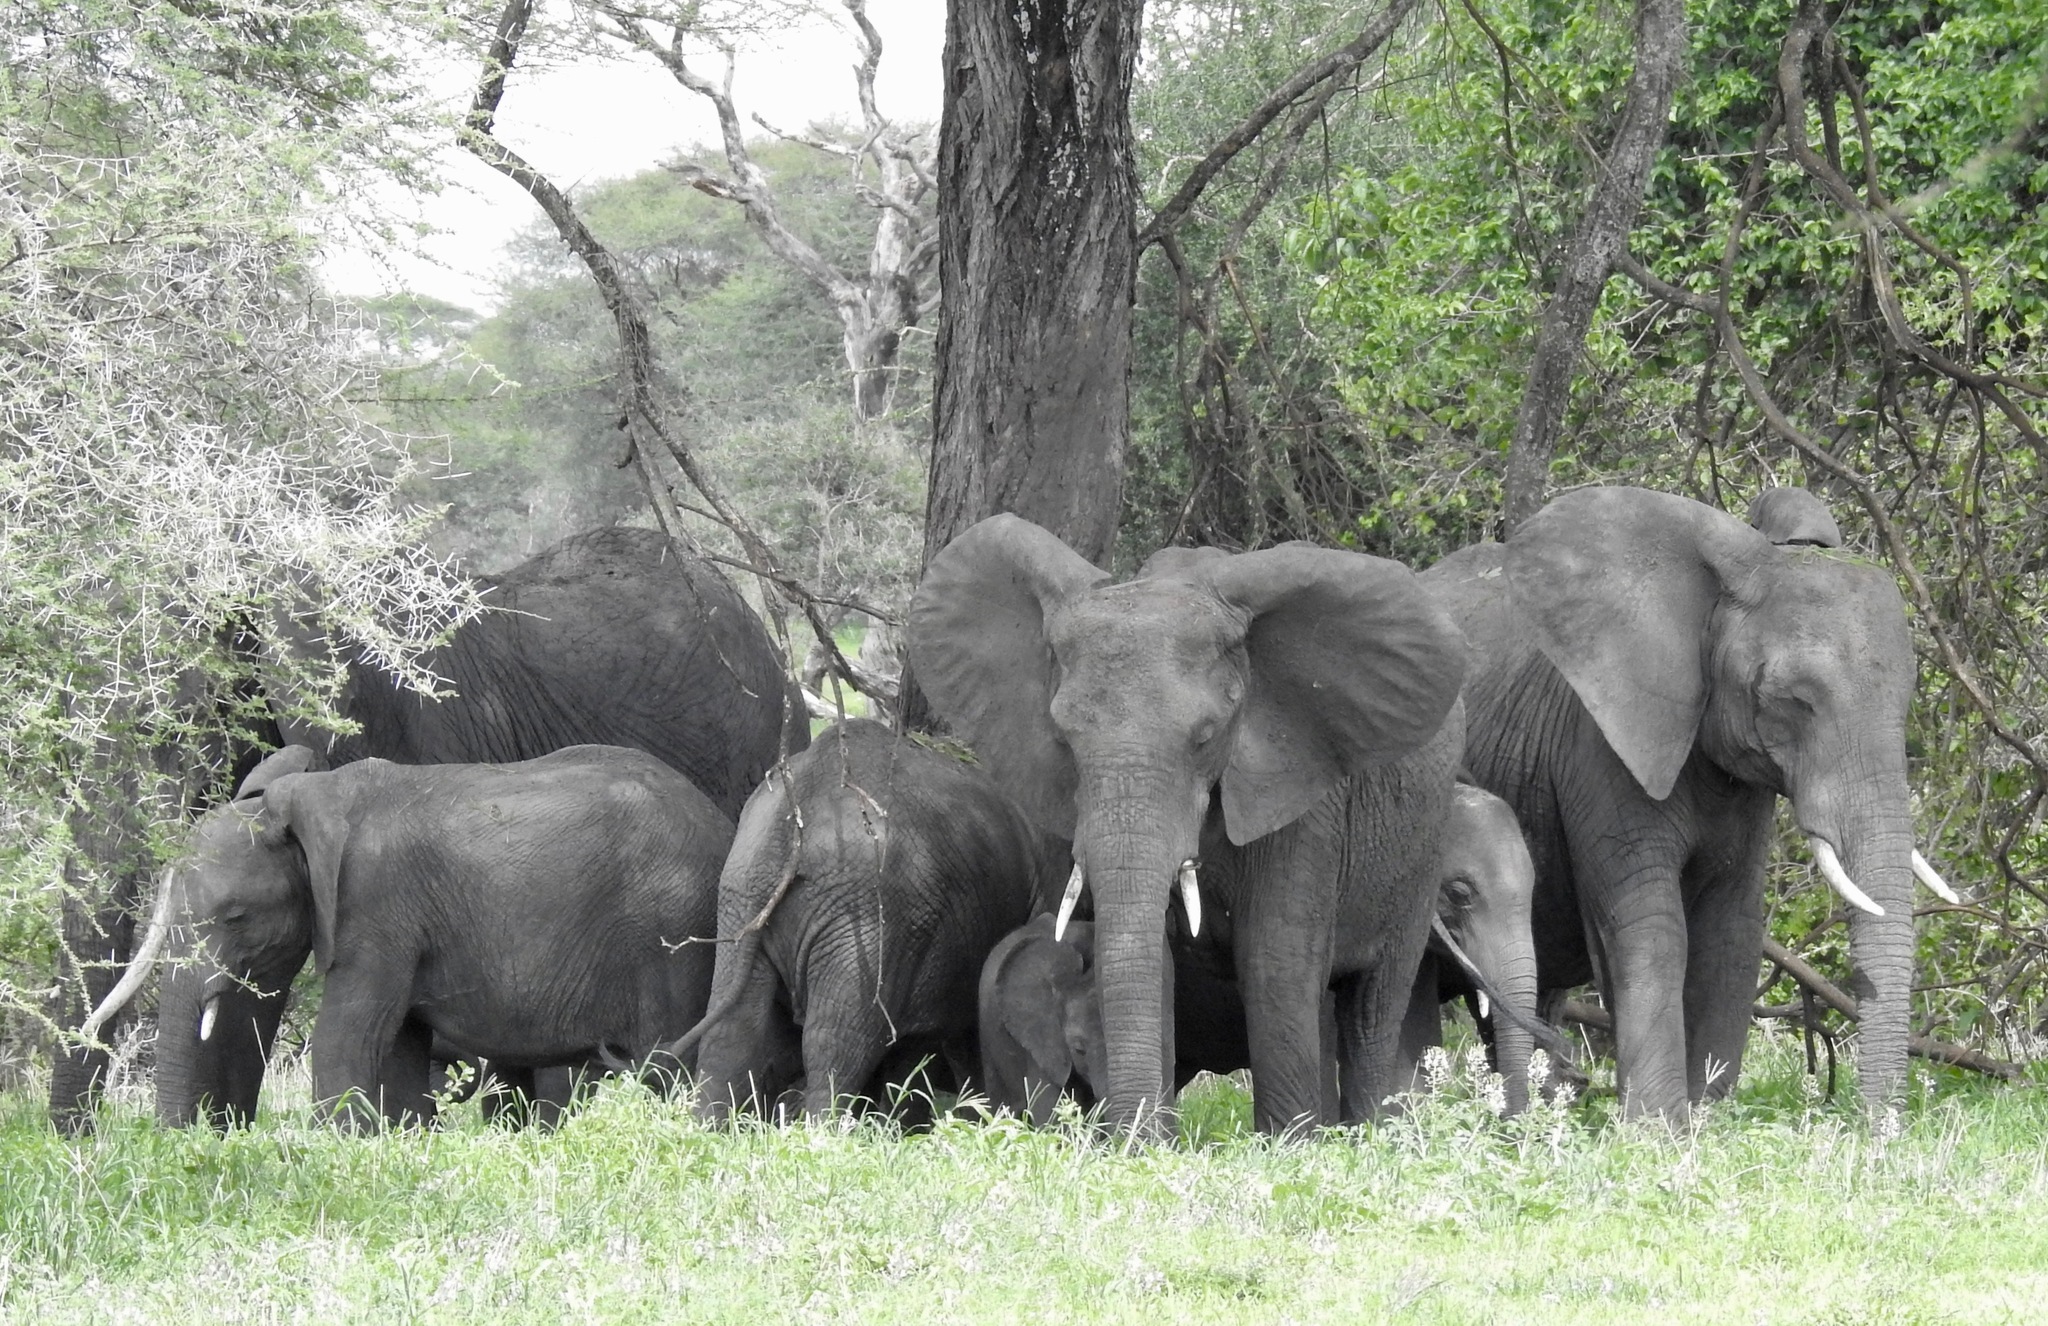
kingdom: Animalia
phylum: Chordata
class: Mammalia
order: Proboscidea
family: Elephantidae
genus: Loxodonta
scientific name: Loxodonta africana
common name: African elephant
